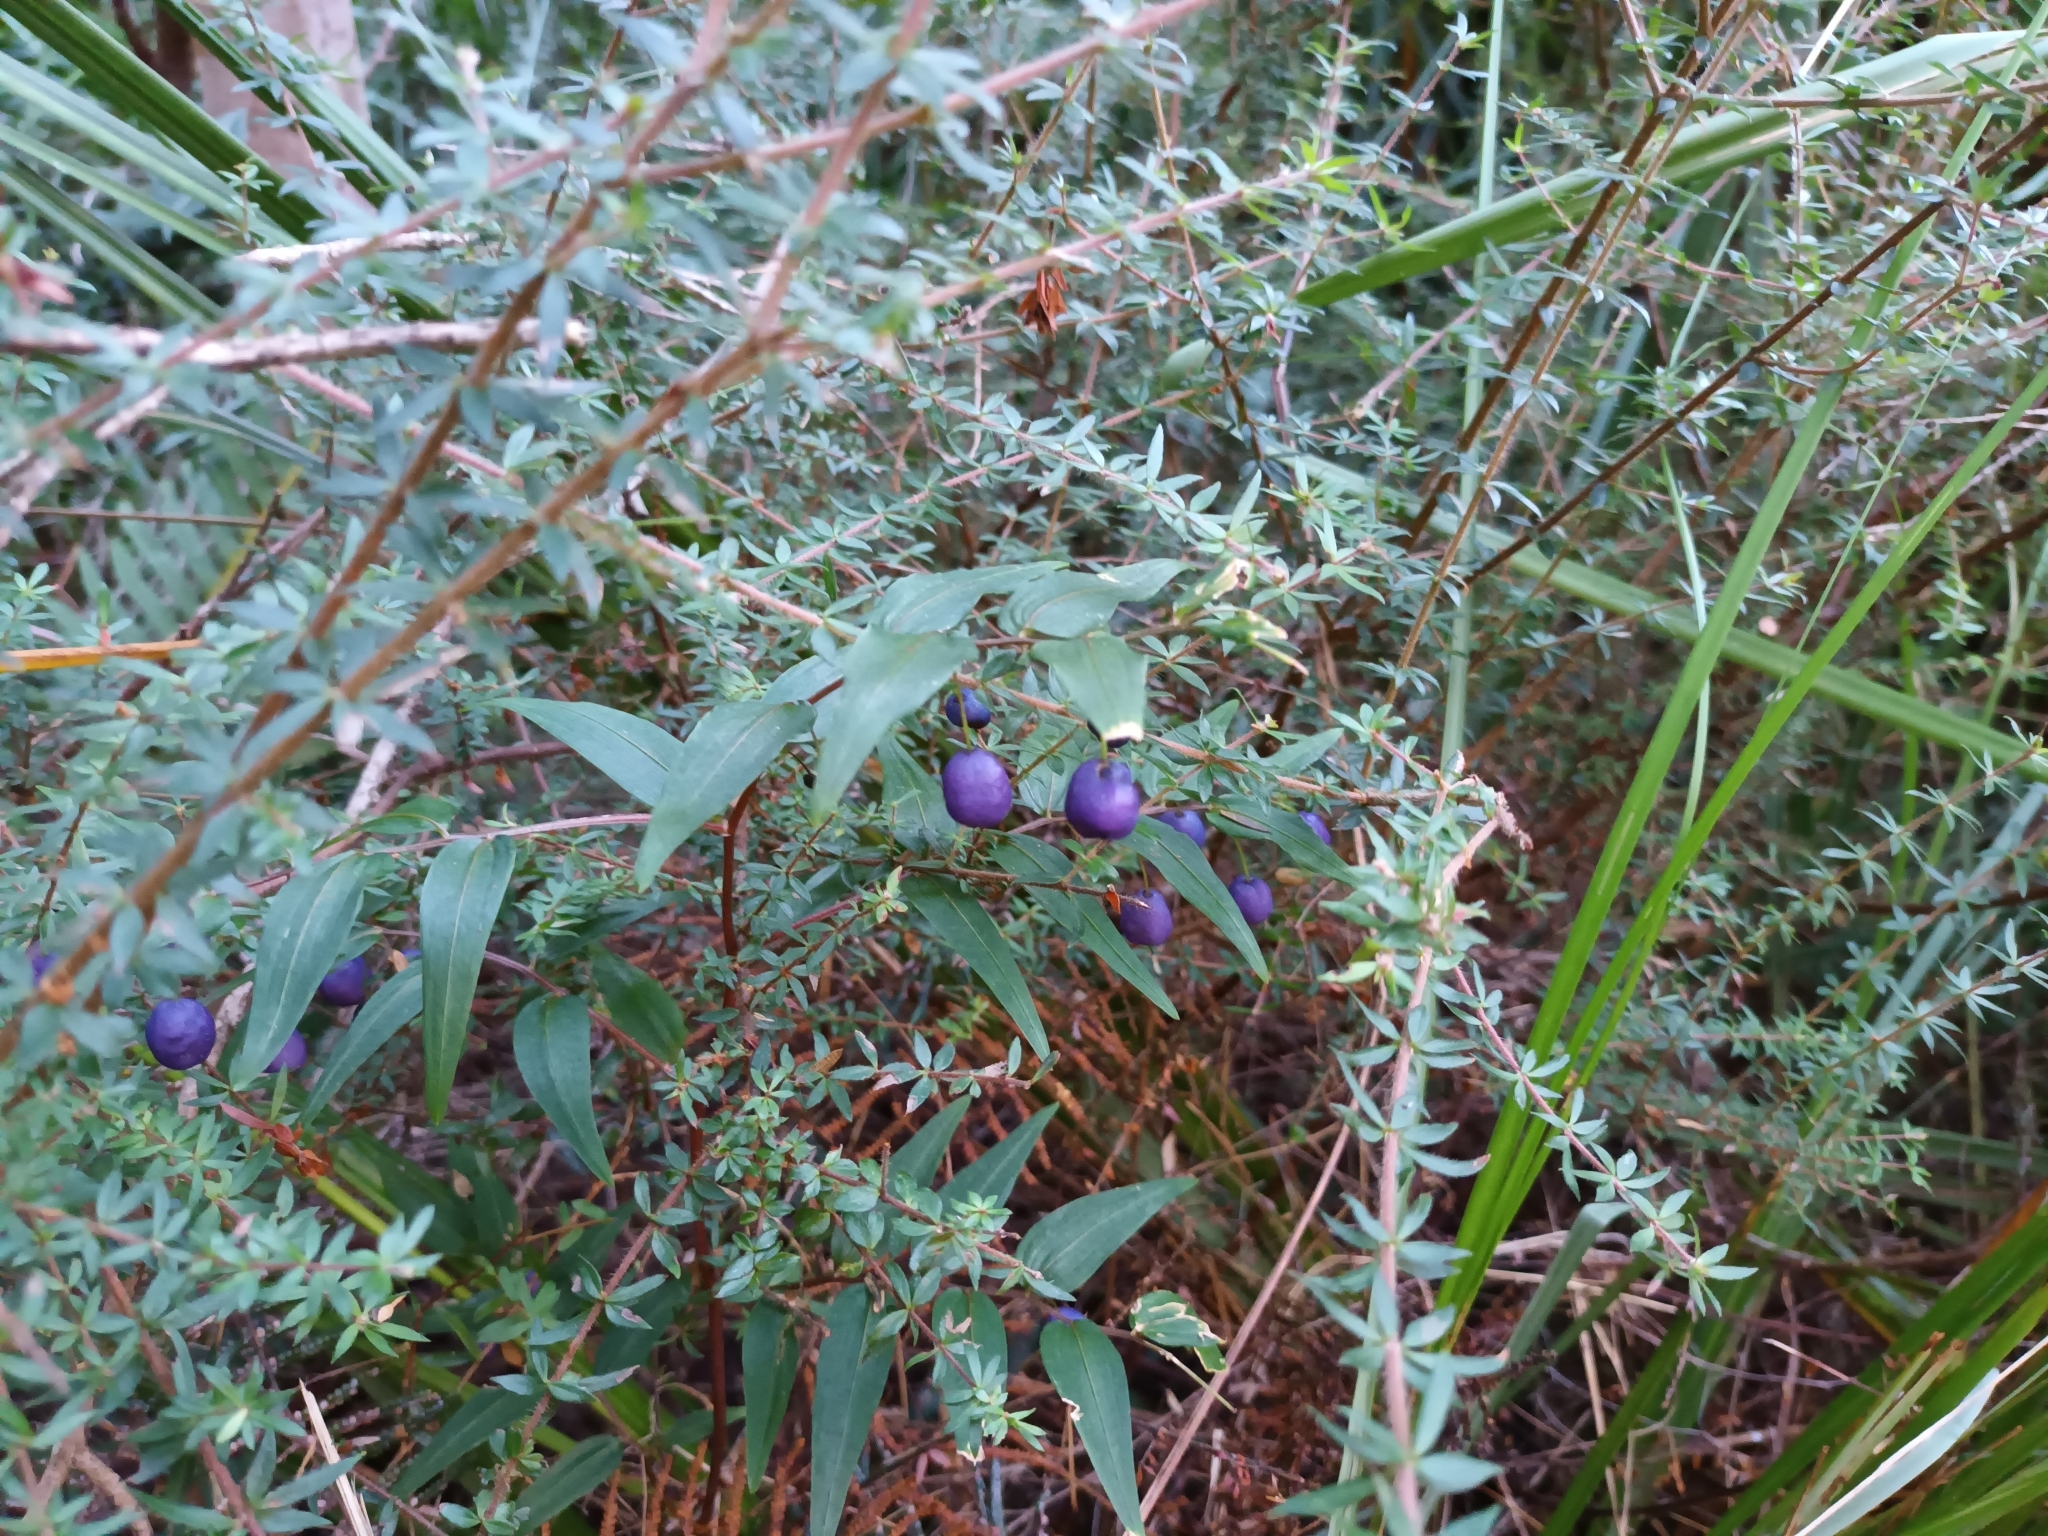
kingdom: Plantae
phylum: Tracheophyta
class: Liliopsida
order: Liliales
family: Alstroemeriaceae
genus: Drymophila
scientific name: Drymophila cyanocarpa
